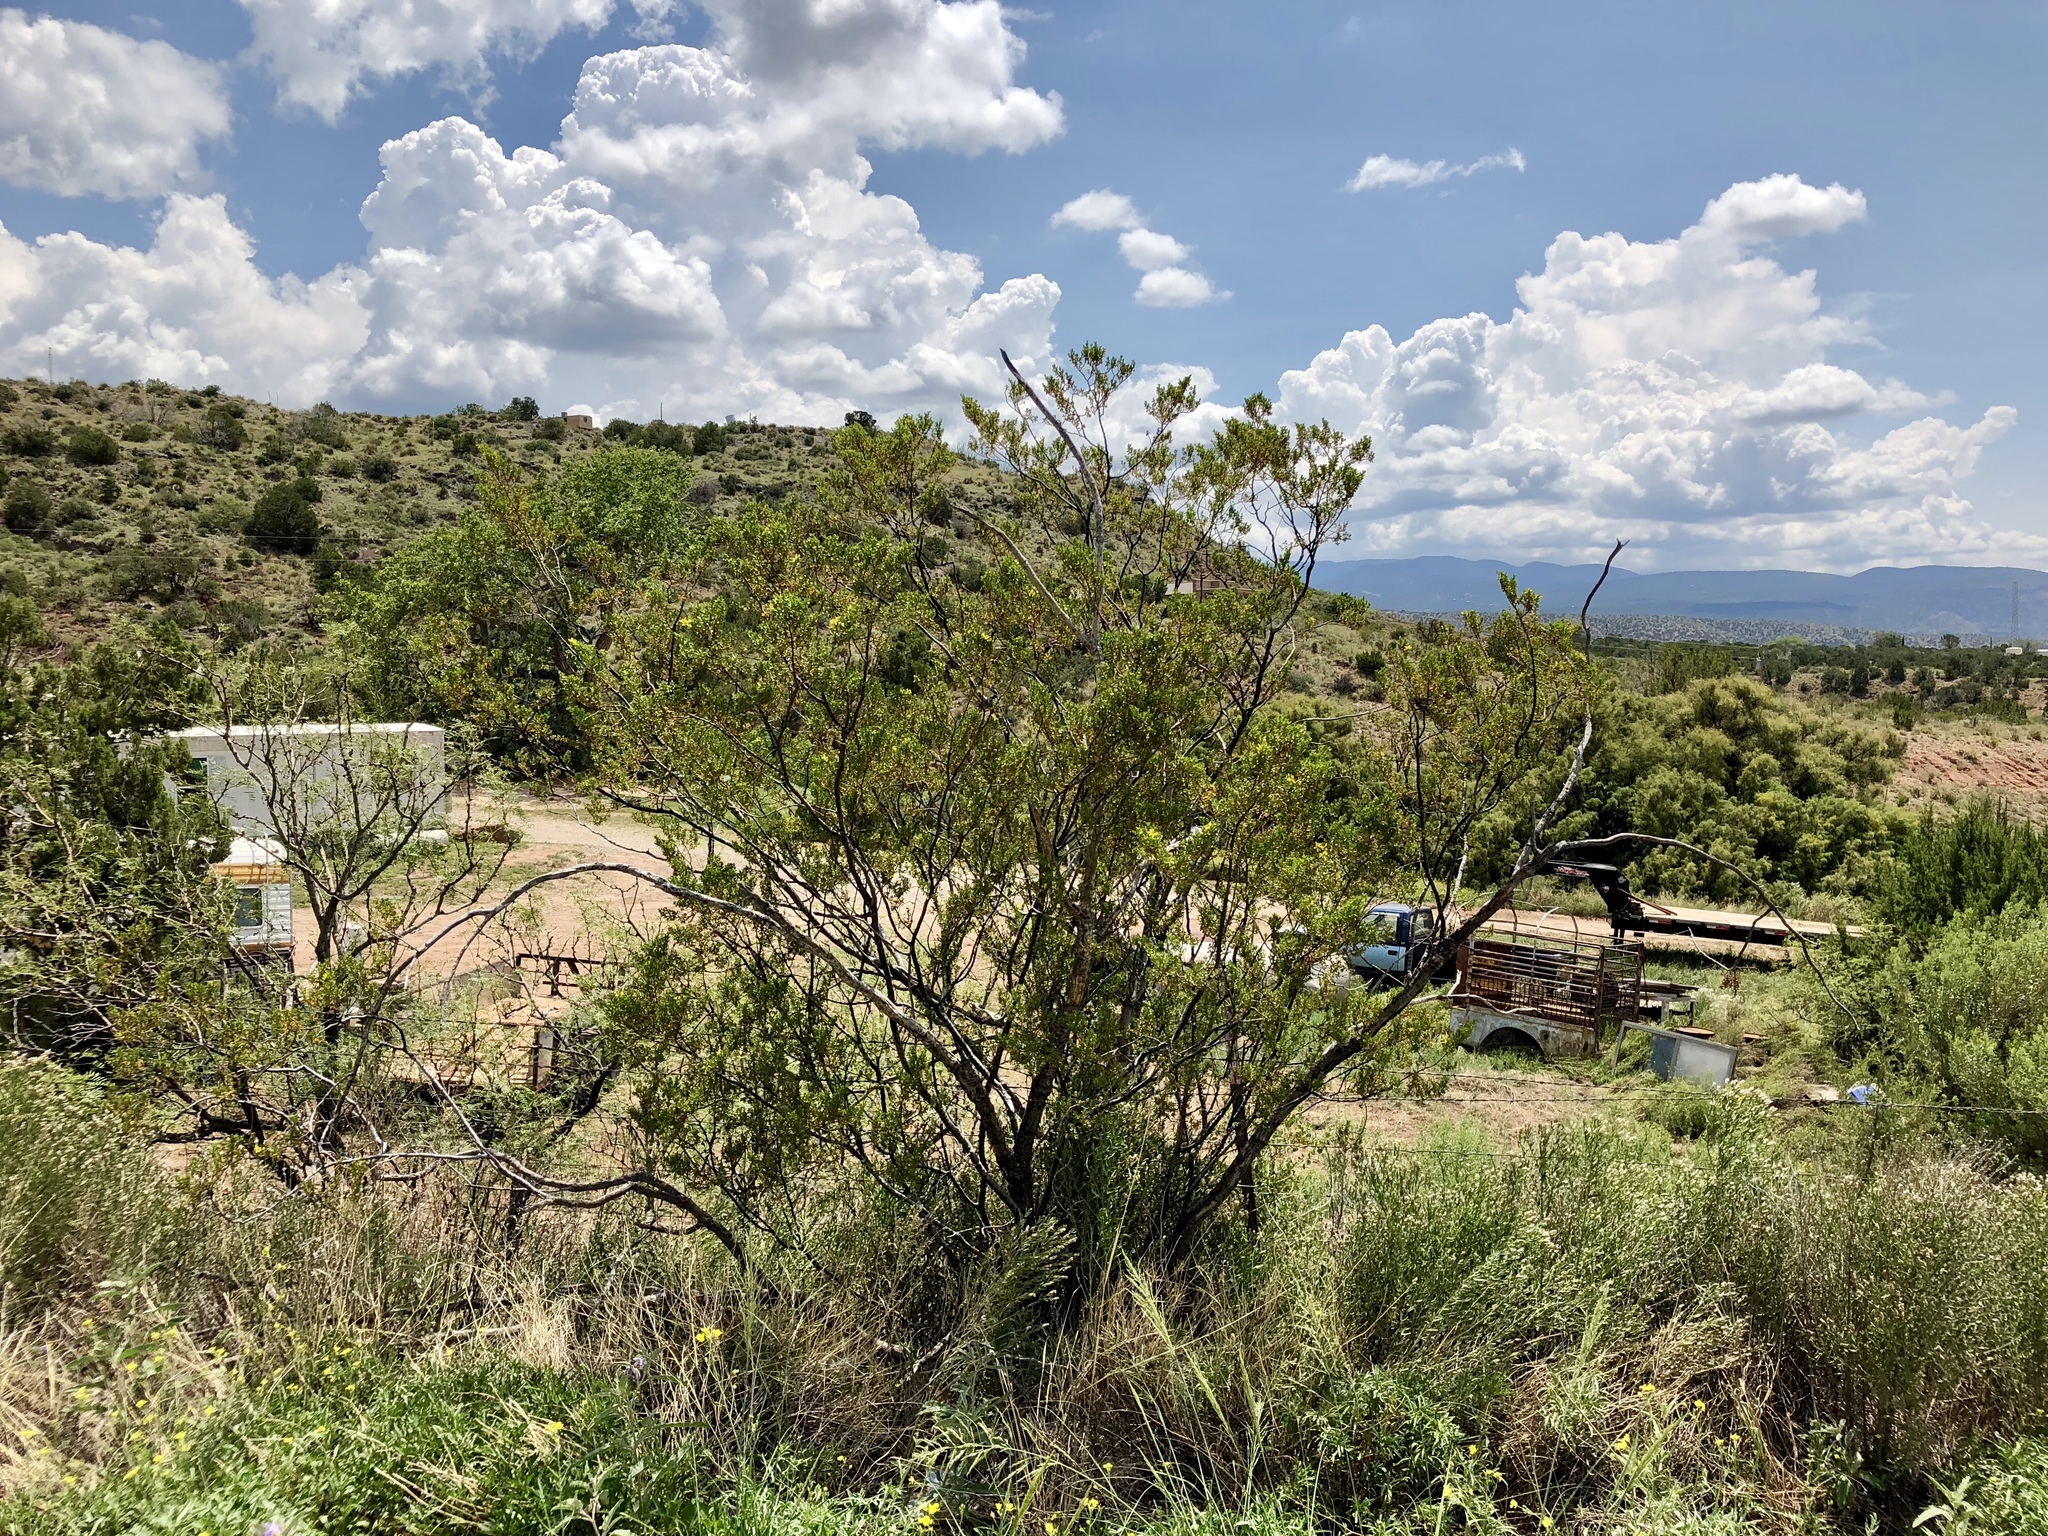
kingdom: Plantae
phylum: Tracheophyta
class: Magnoliopsida
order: Zygophyllales
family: Zygophyllaceae
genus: Larrea
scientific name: Larrea tridentata
